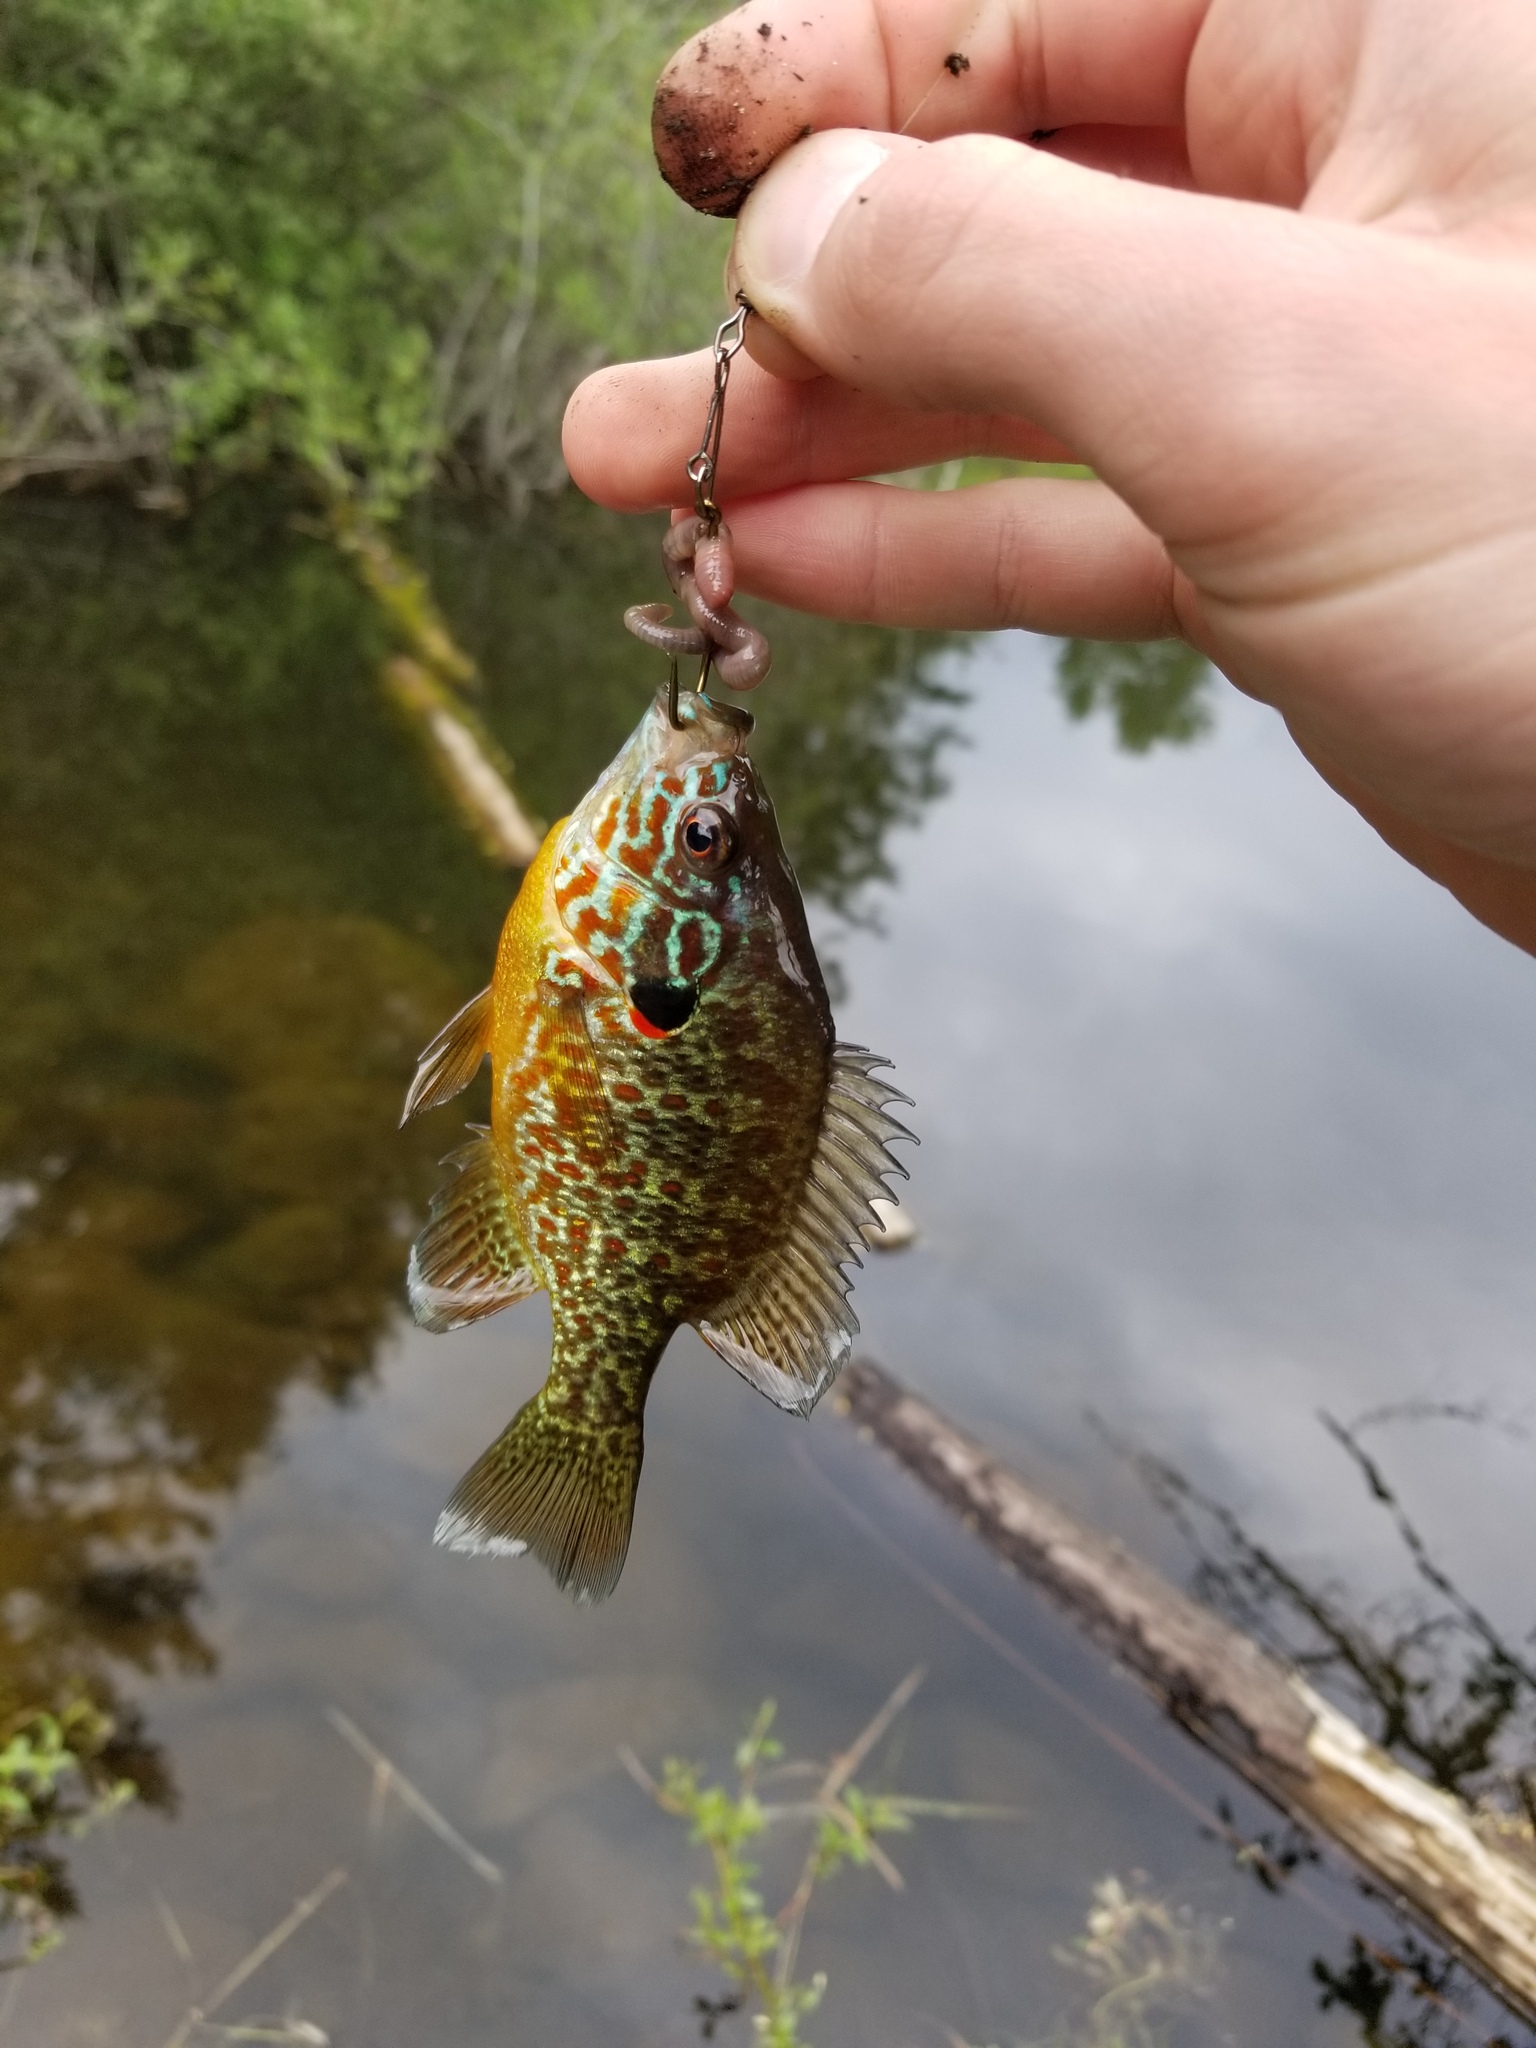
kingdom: Animalia
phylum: Chordata
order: Perciformes
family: Centrarchidae
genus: Lepomis
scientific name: Lepomis gibbosus
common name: Pumpkinseed
